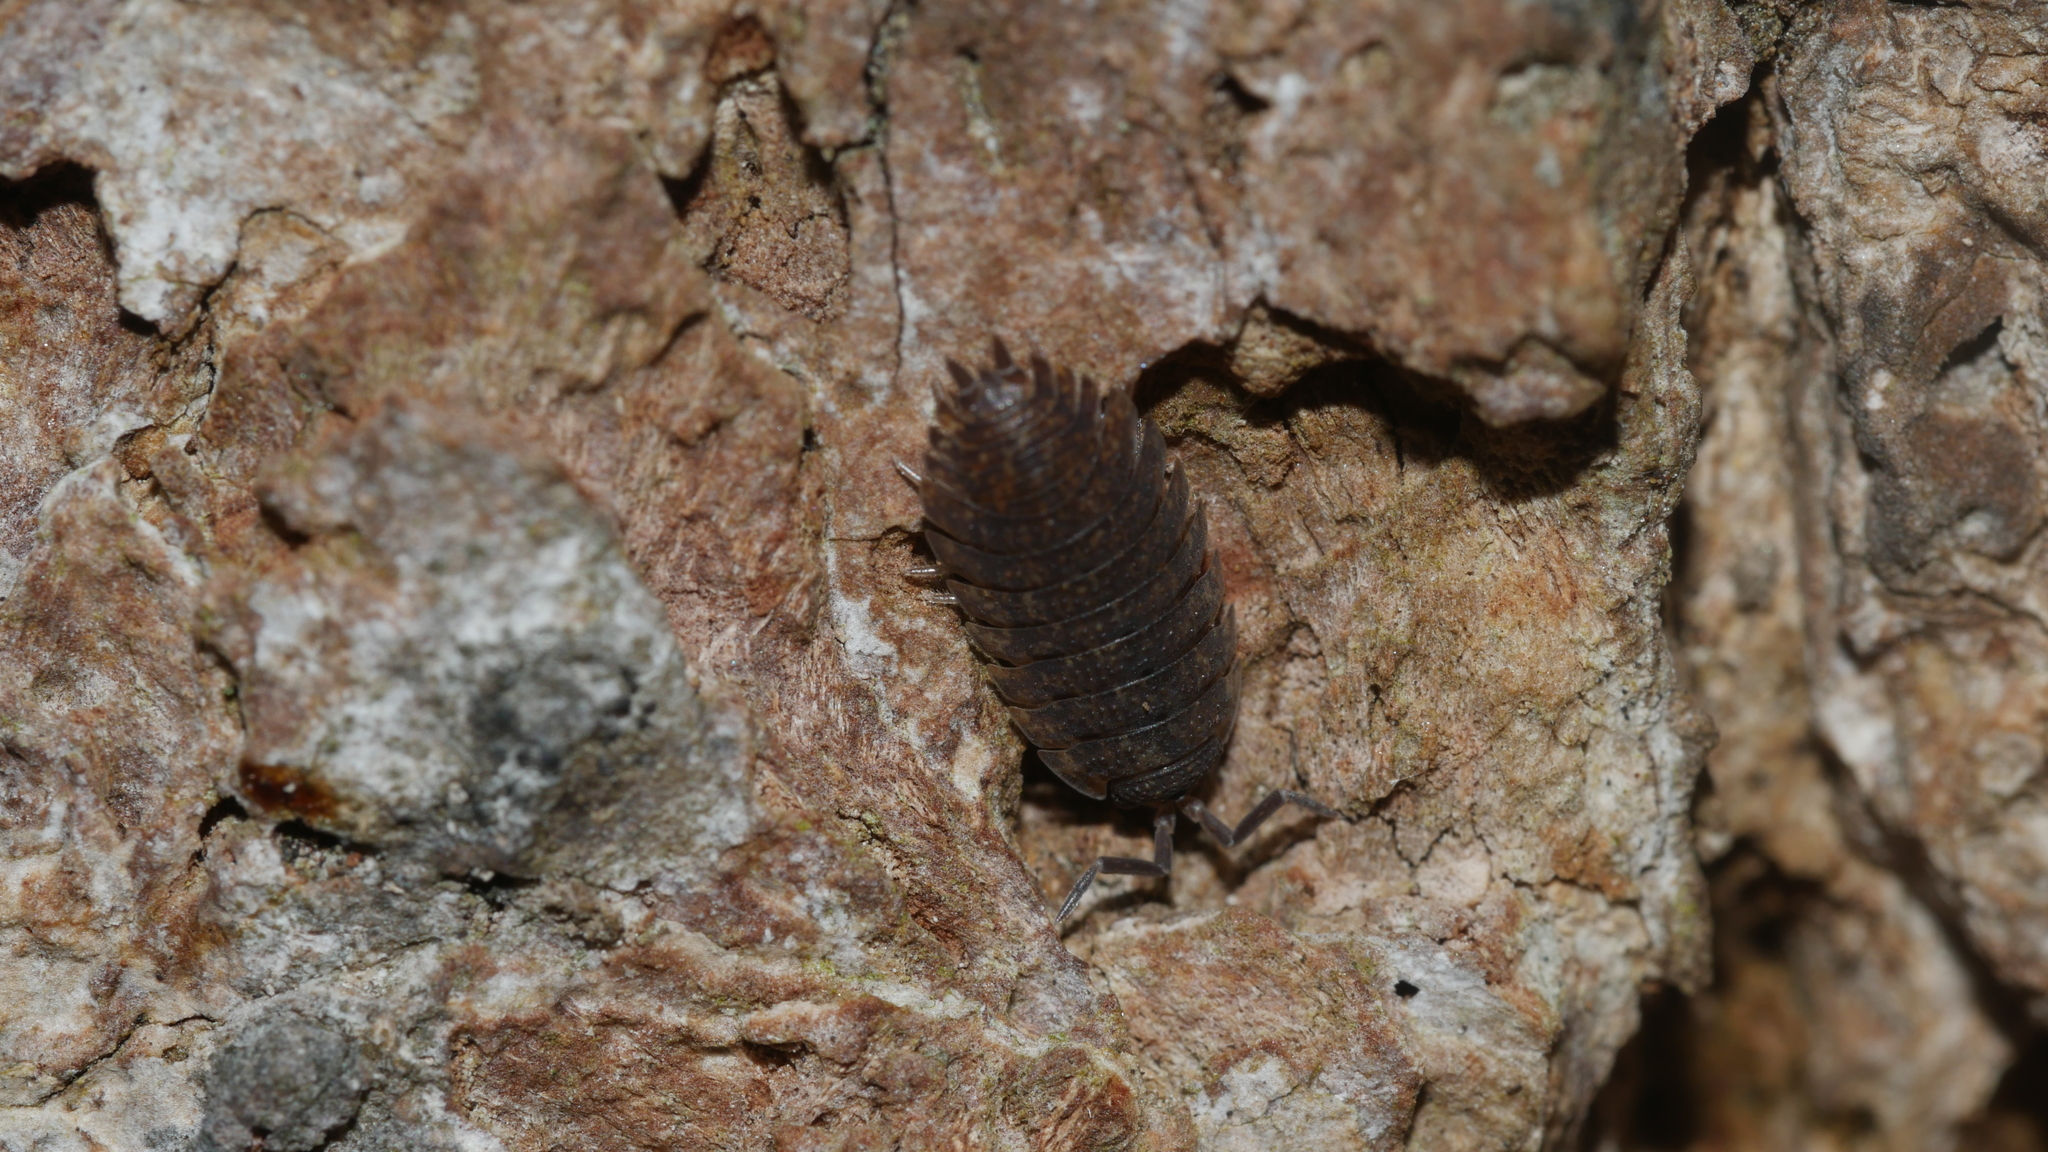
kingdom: Animalia
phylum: Arthropoda
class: Malacostraca
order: Isopoda
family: Porcellionidae
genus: Porcellio
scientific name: Porcellio scaber
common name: Common rough woodlouse
